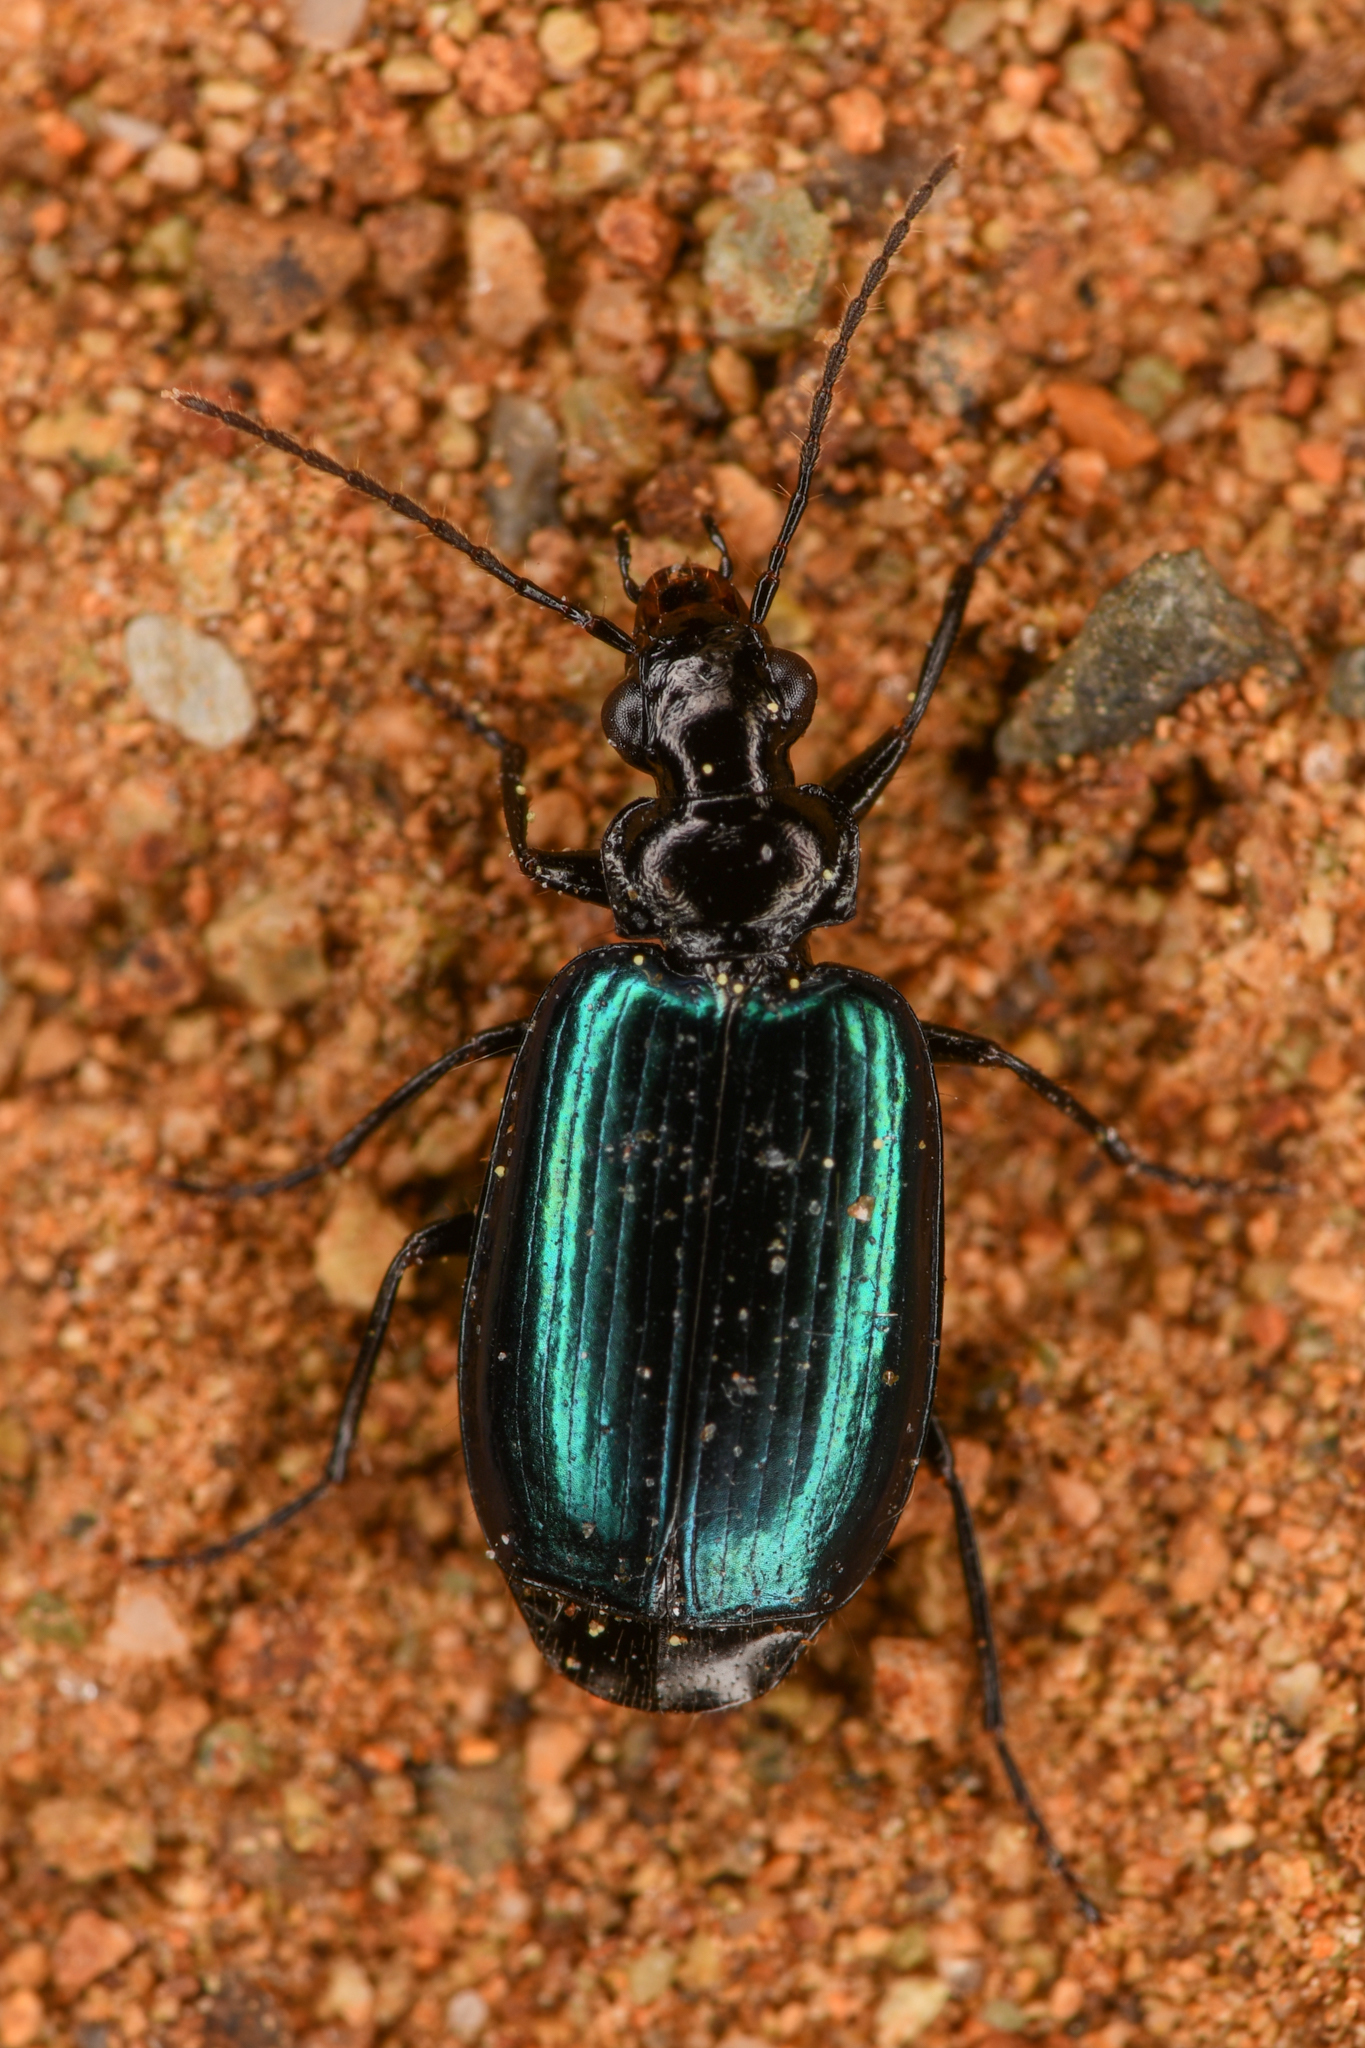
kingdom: Animalia
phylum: Arthropoda
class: Insecta
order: Coleoptera
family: Carabidae
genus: Lebia
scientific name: Lebia cyanipennis
